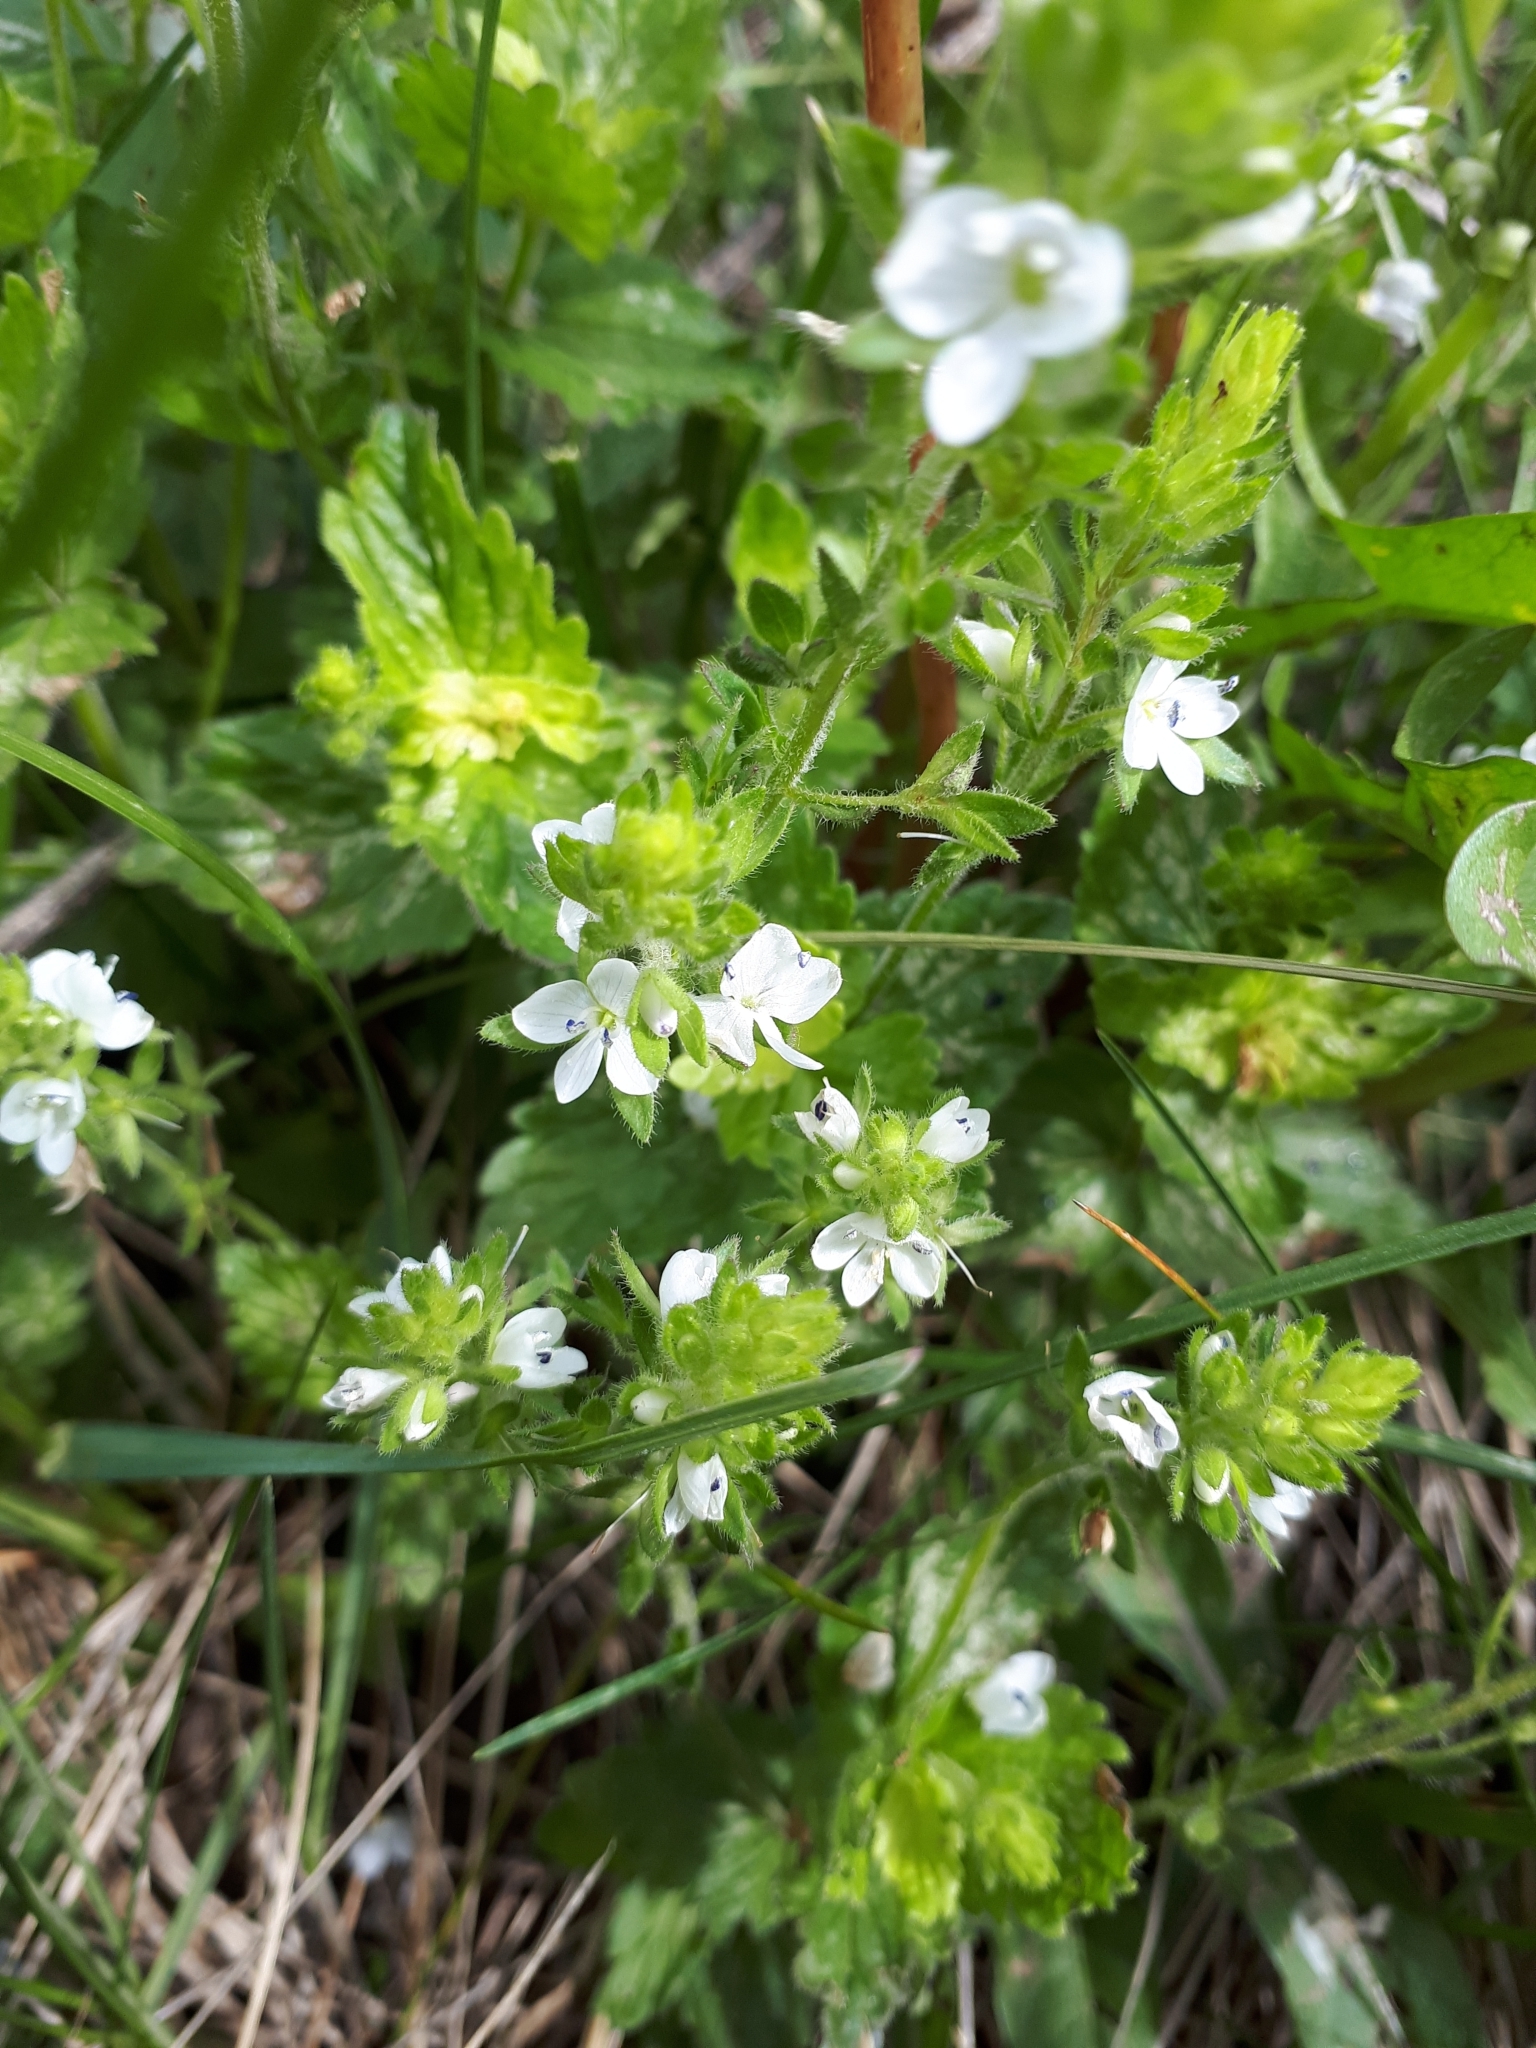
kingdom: Plantae
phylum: Tracheophyta
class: Magnoliopsida
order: Lamiales
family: Plantaginaceae
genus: Veronica
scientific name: Veronica chamaedrys
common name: Germander speedwell
